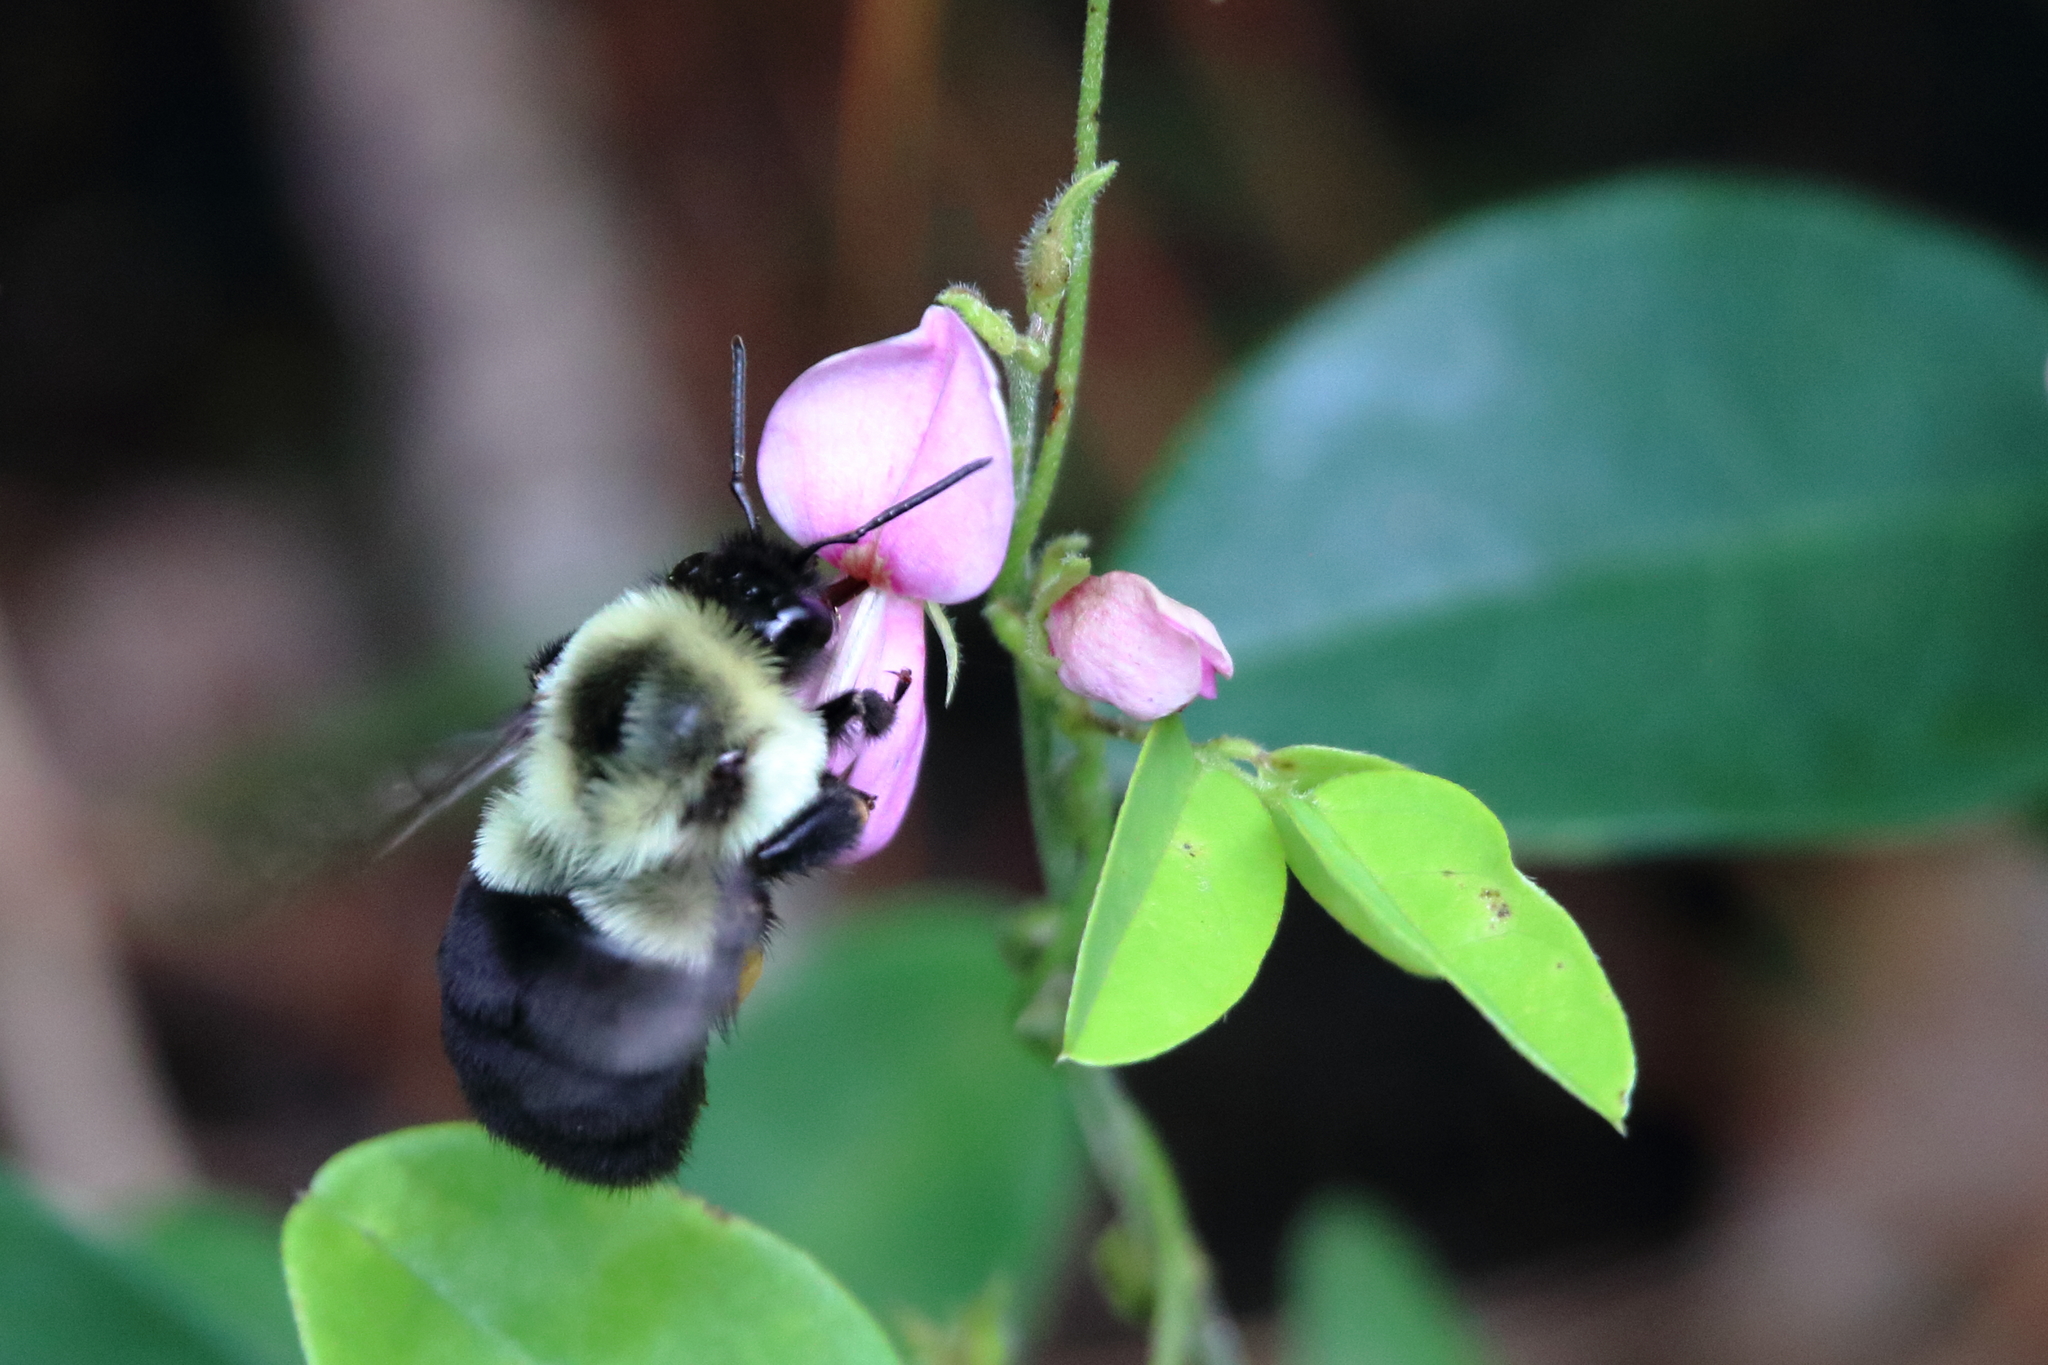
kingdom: Animalia
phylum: Arthropoda
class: Insecta
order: Hymenoptera
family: Apidae
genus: Bombus
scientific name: Bombus impatiens
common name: Common eastern bumble bee
